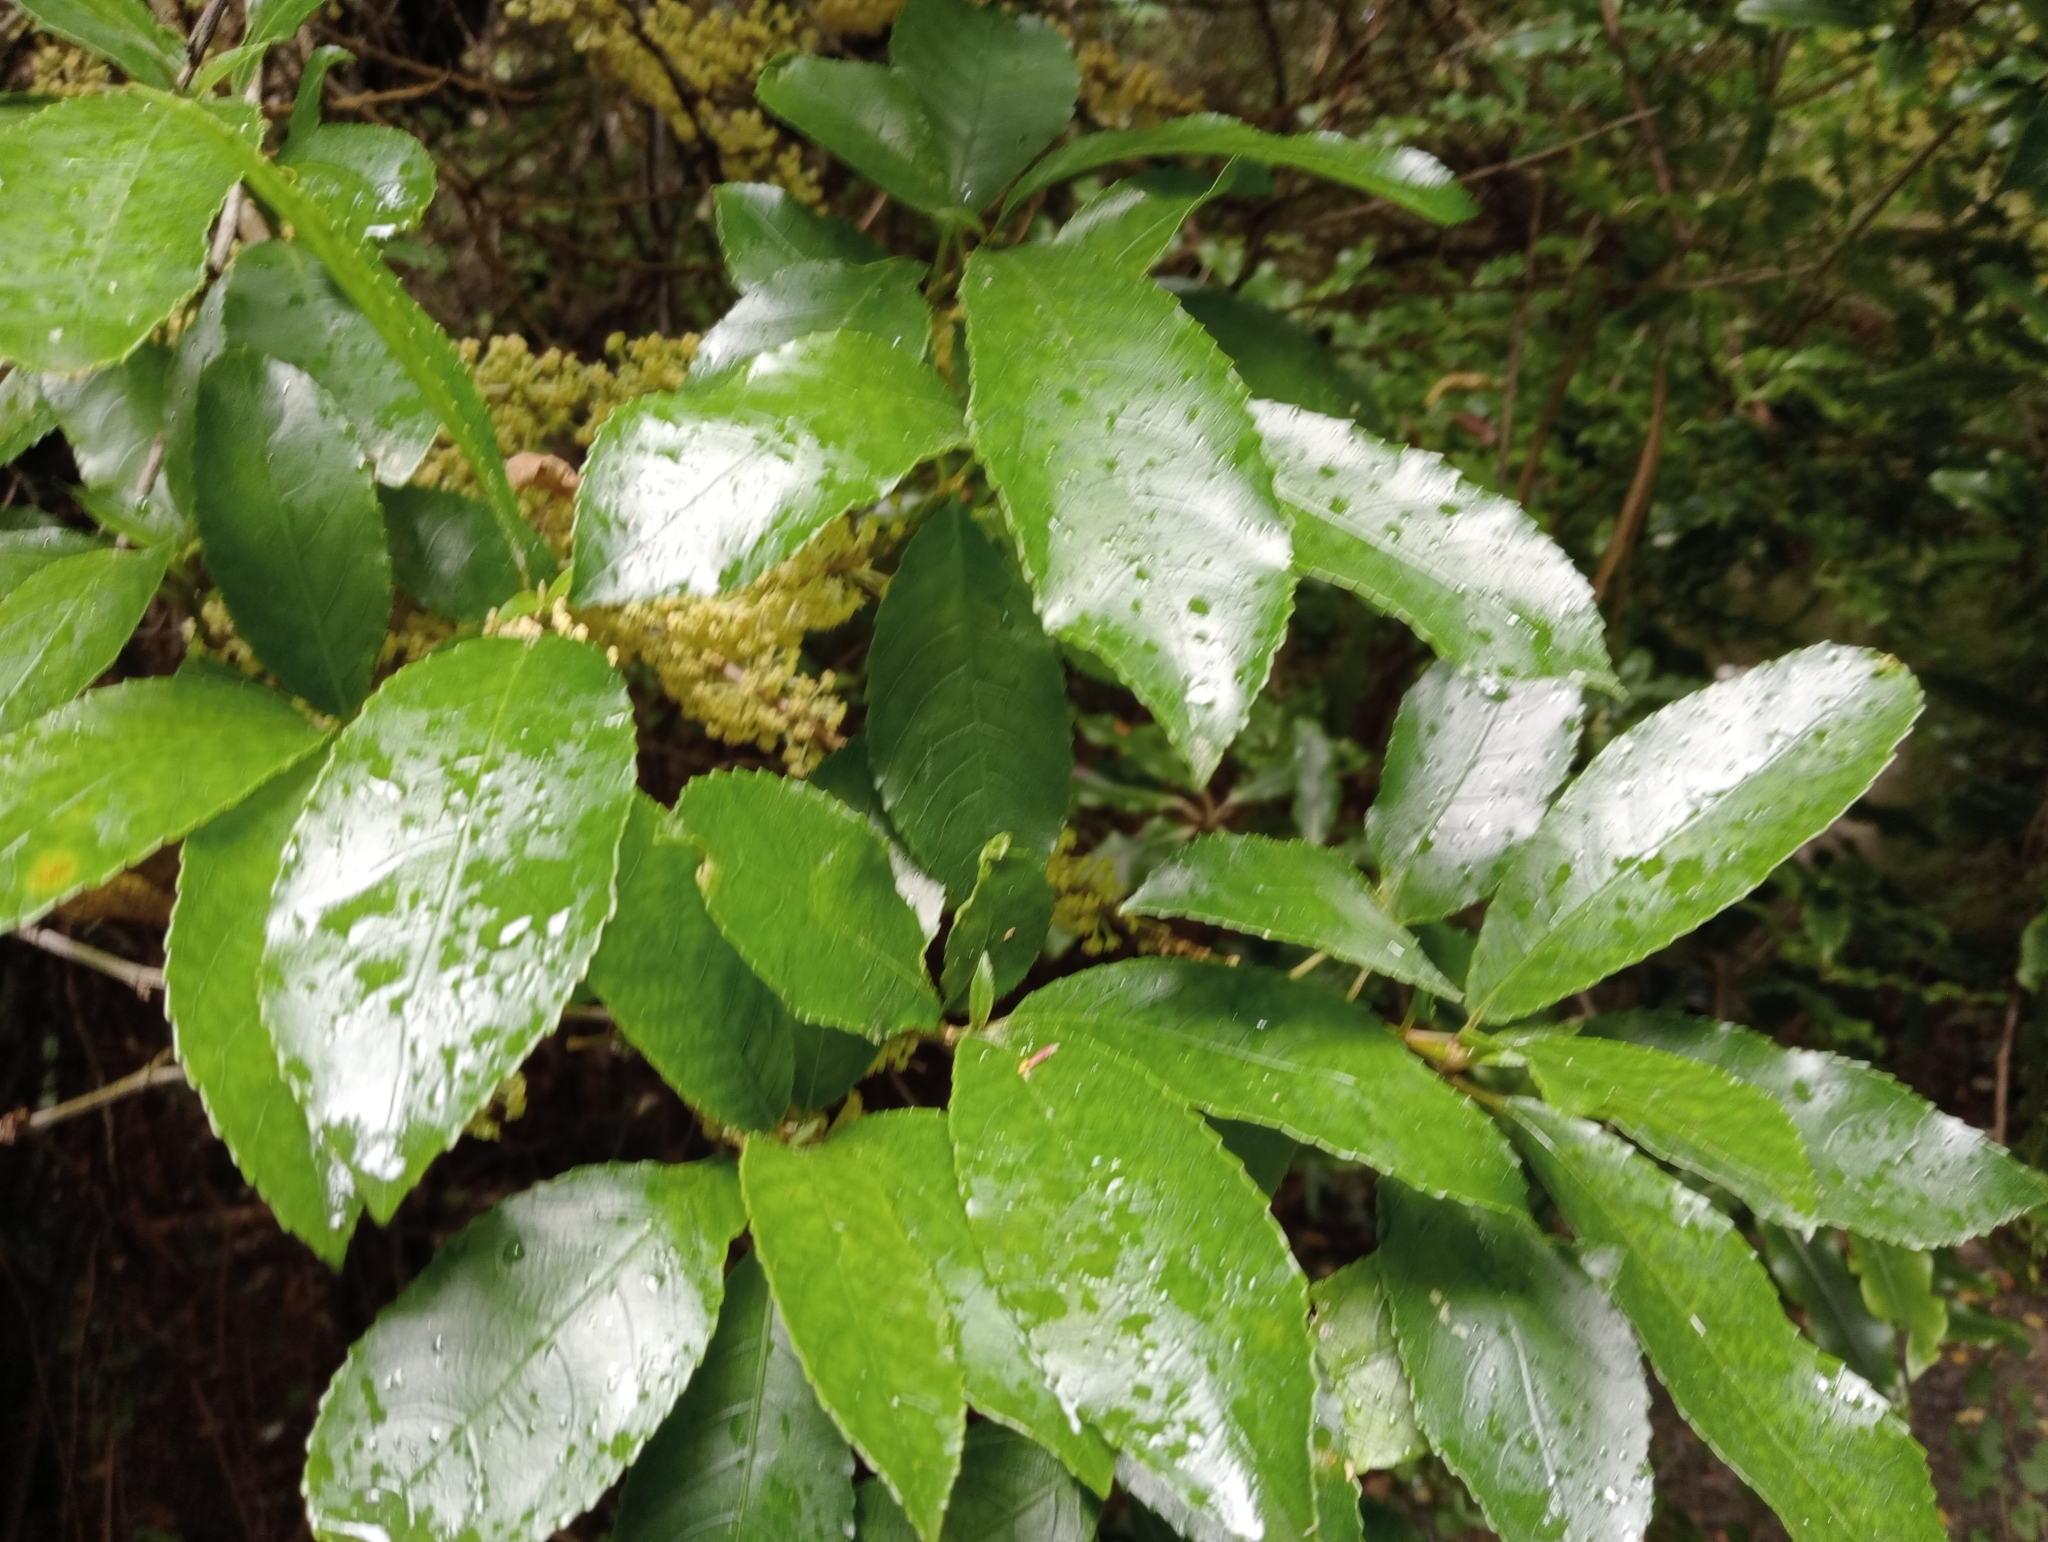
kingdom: Plantae
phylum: Tracheophyta
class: Magnoliopsida
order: Malpighiales
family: Violaceae
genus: Melicytus
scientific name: Melicytus ramiflorus
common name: Mahoe
